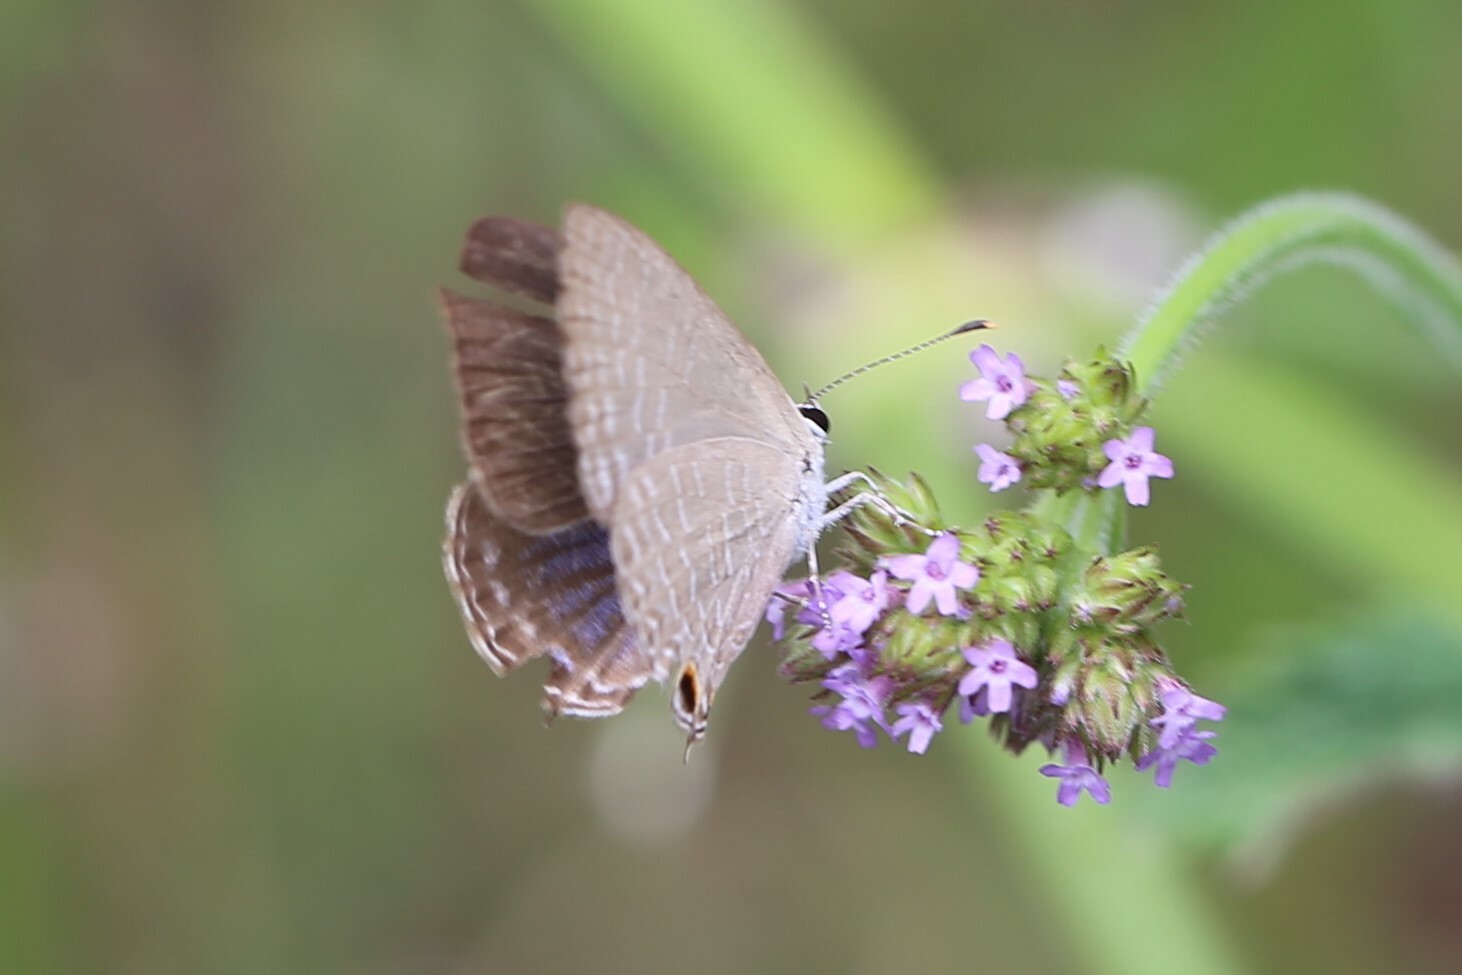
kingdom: Animalia
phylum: Arthropoda
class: Insecta
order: Lepidoptera
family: Lycaenidae
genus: Jamides
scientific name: Jamides phaseli
